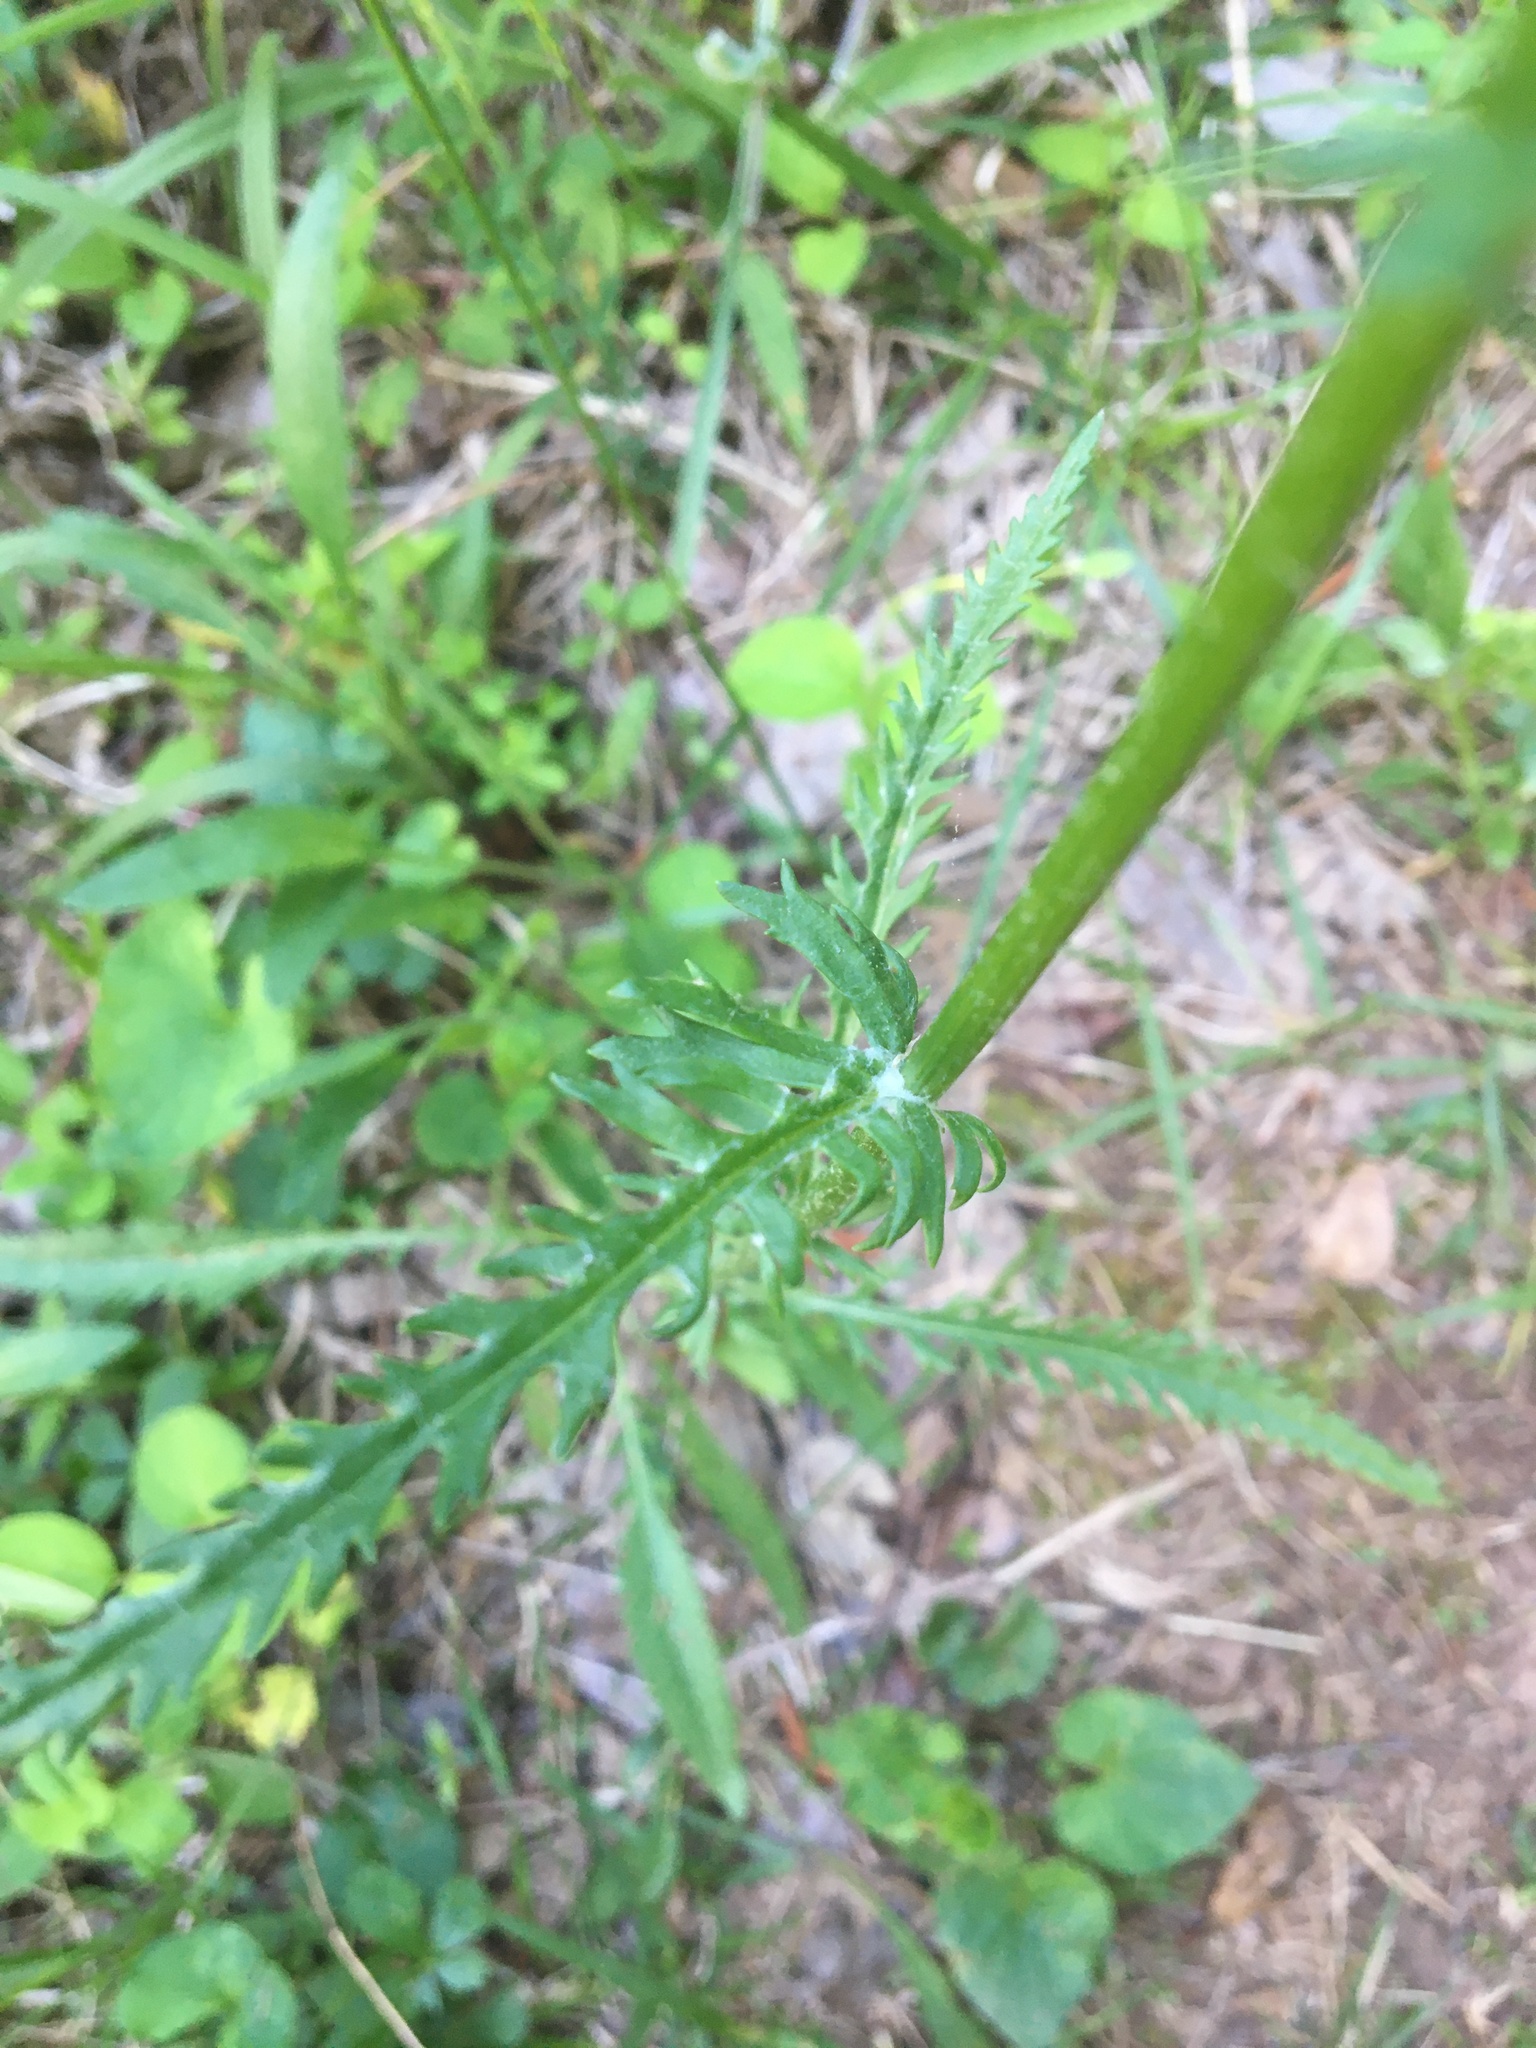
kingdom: Plantae
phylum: Tracheophyta
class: Magnoliopsida
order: Asterales
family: Asteraceae
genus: Packera
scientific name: Packera anonyma
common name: Small ragwort
